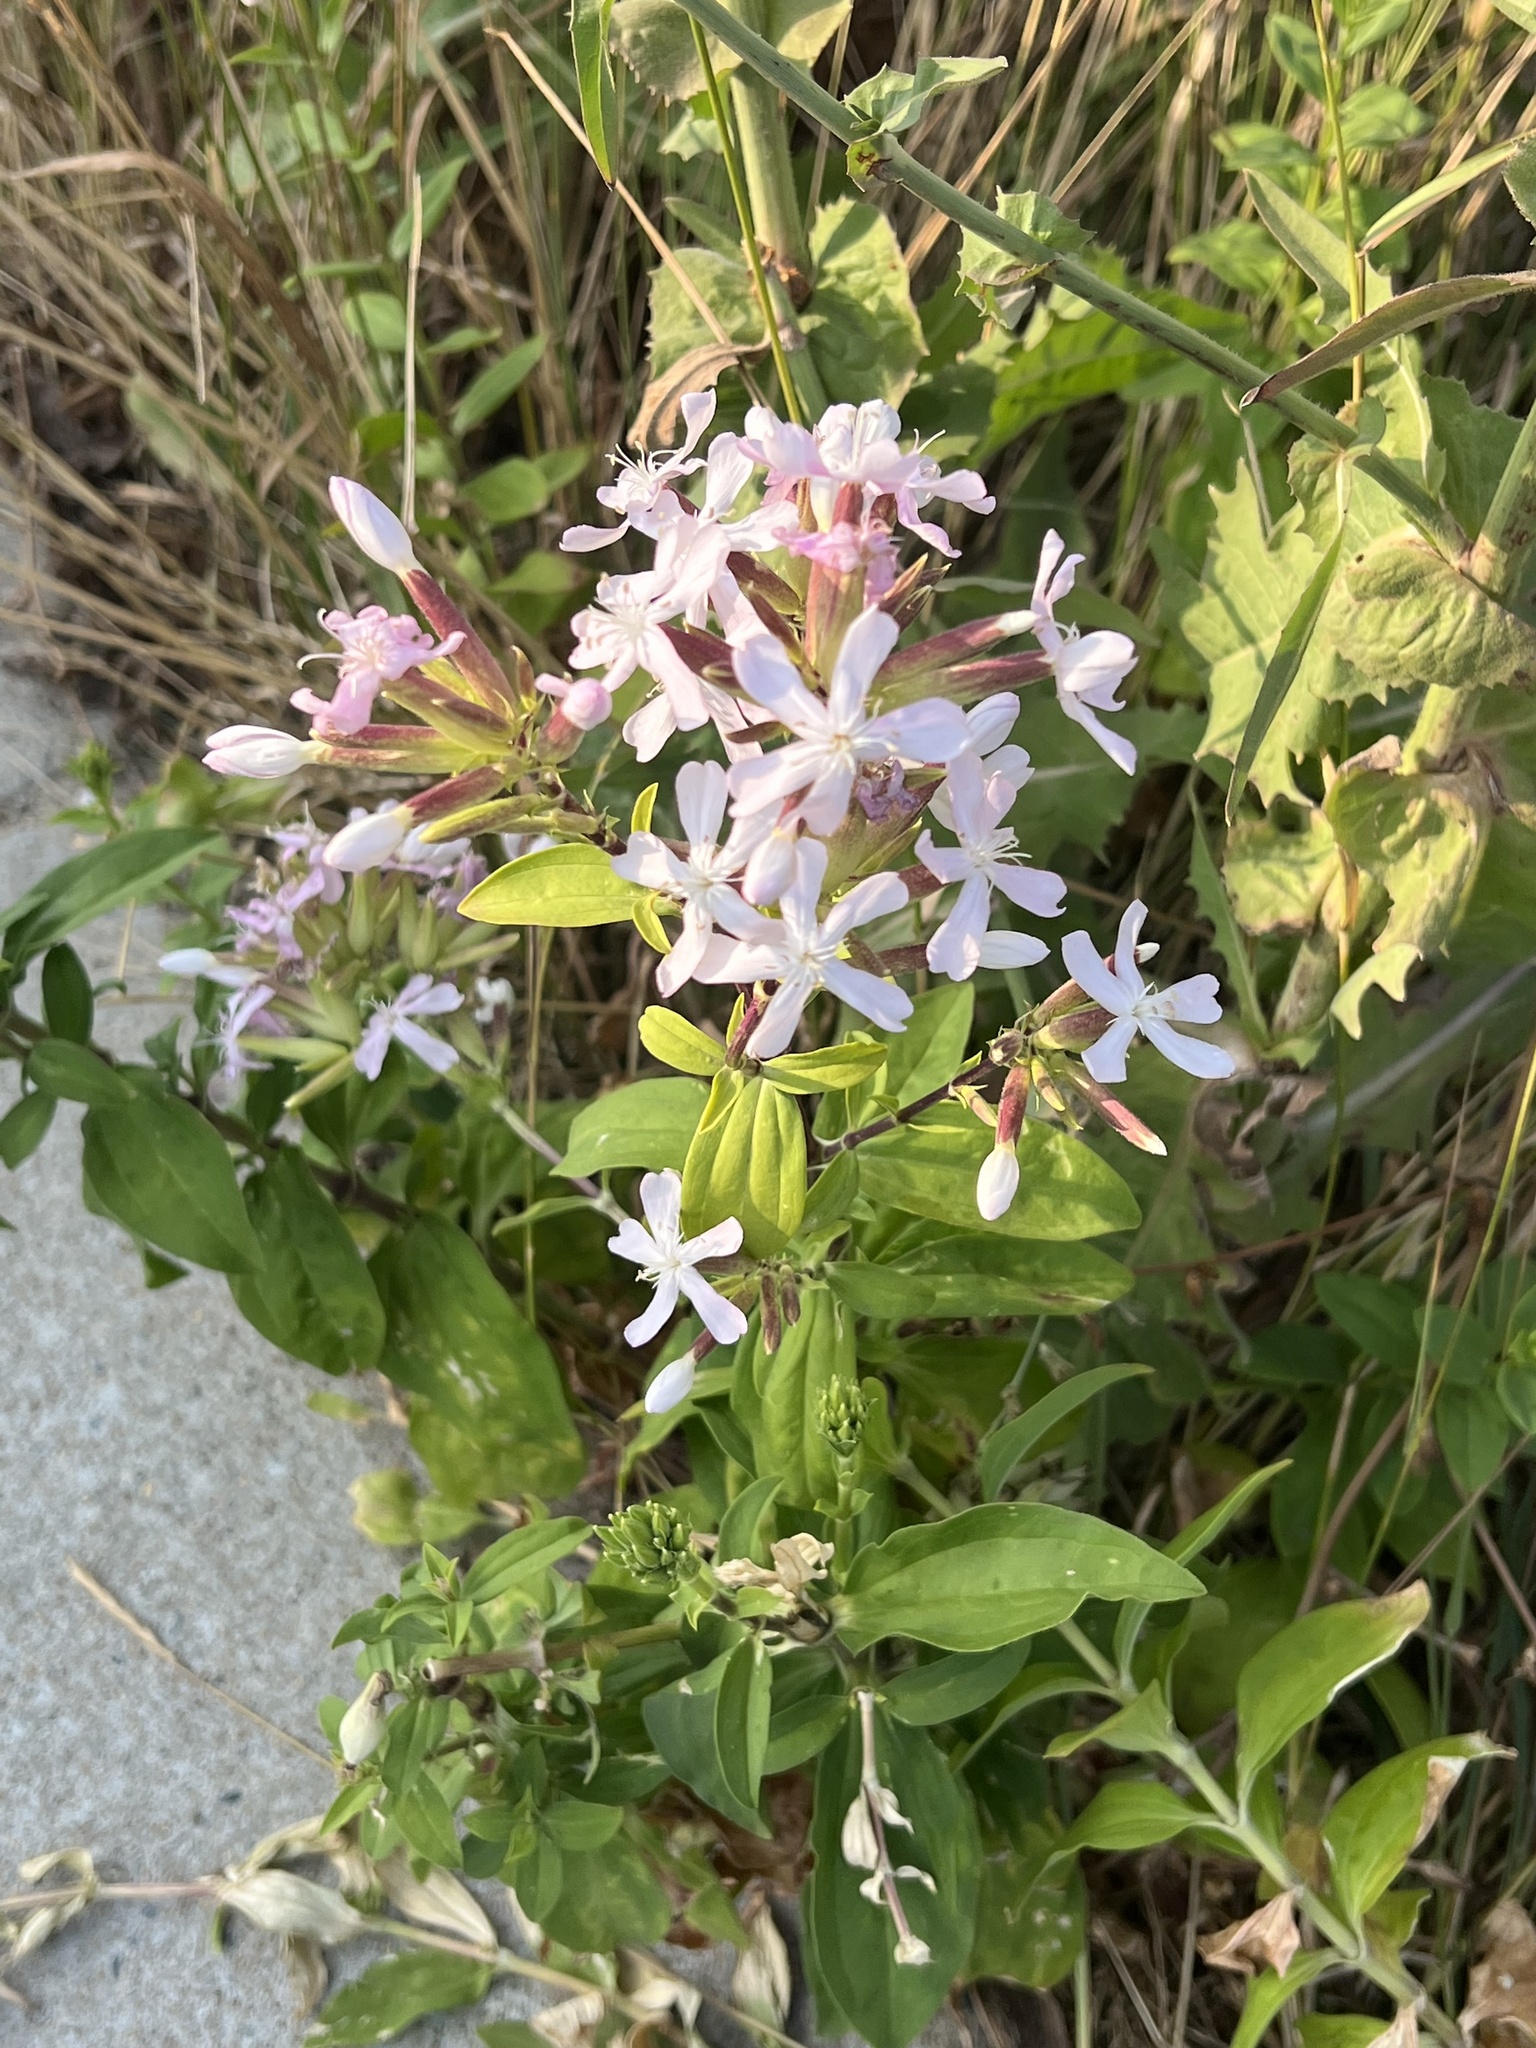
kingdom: Plantae
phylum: Tracheophyta
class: Magnoliopsida
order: Caryophyllales
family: Caryophyllaceae
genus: Saponaria
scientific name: Saponaria officinalis
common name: Soapwort
